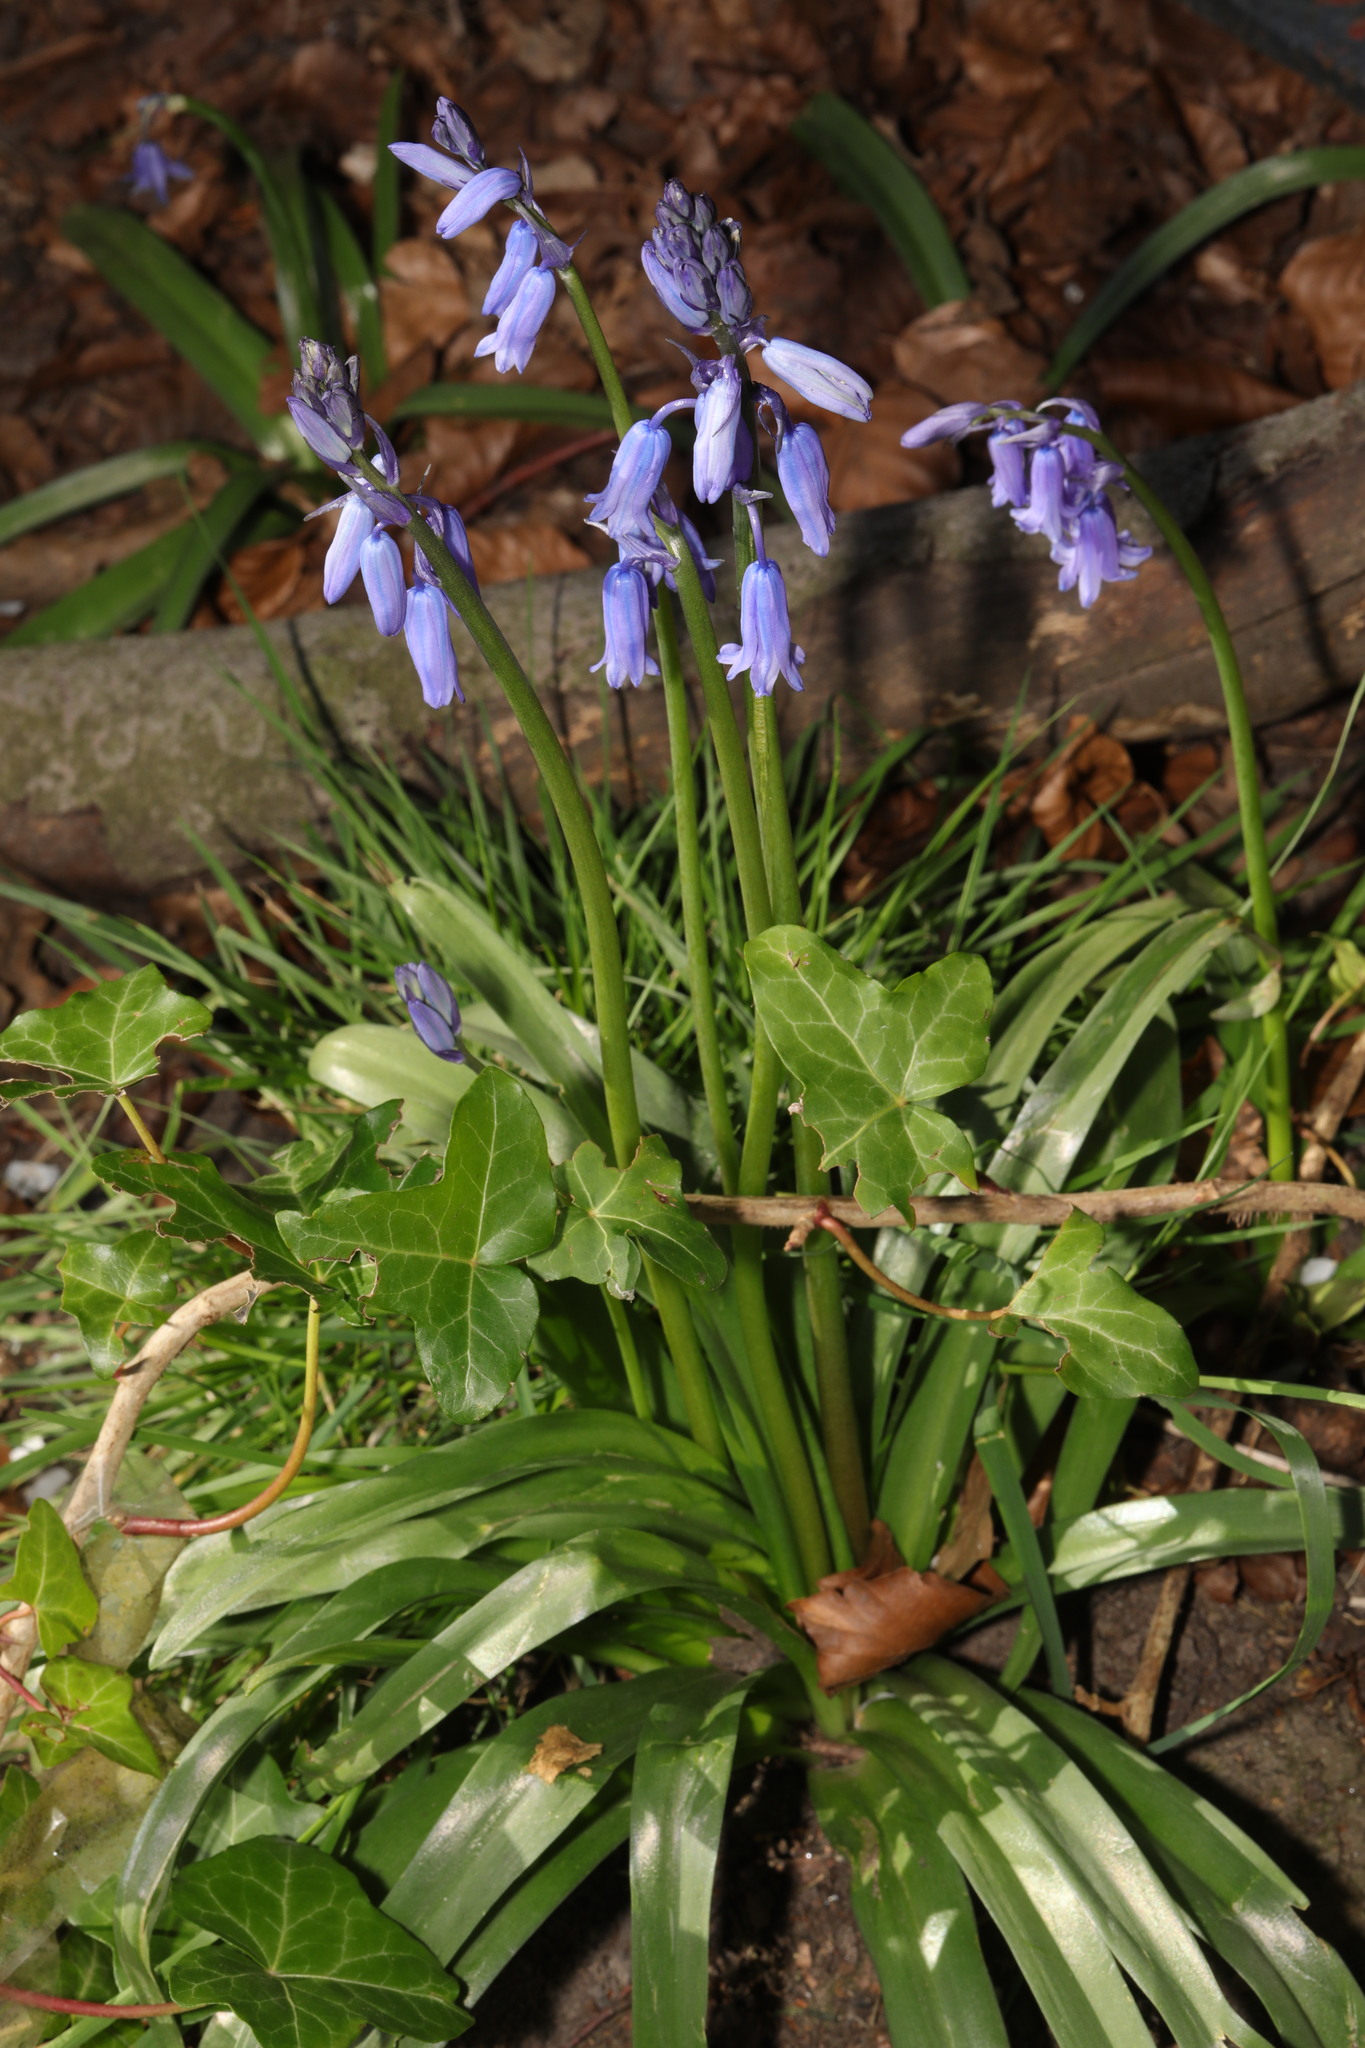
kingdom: Plantae
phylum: Tracheophyta
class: Liliopsida
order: Asparagales
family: Asparagaceae
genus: Hyacinthoides
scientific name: Hyacinthoides hispanica
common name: Spanish bluebell
